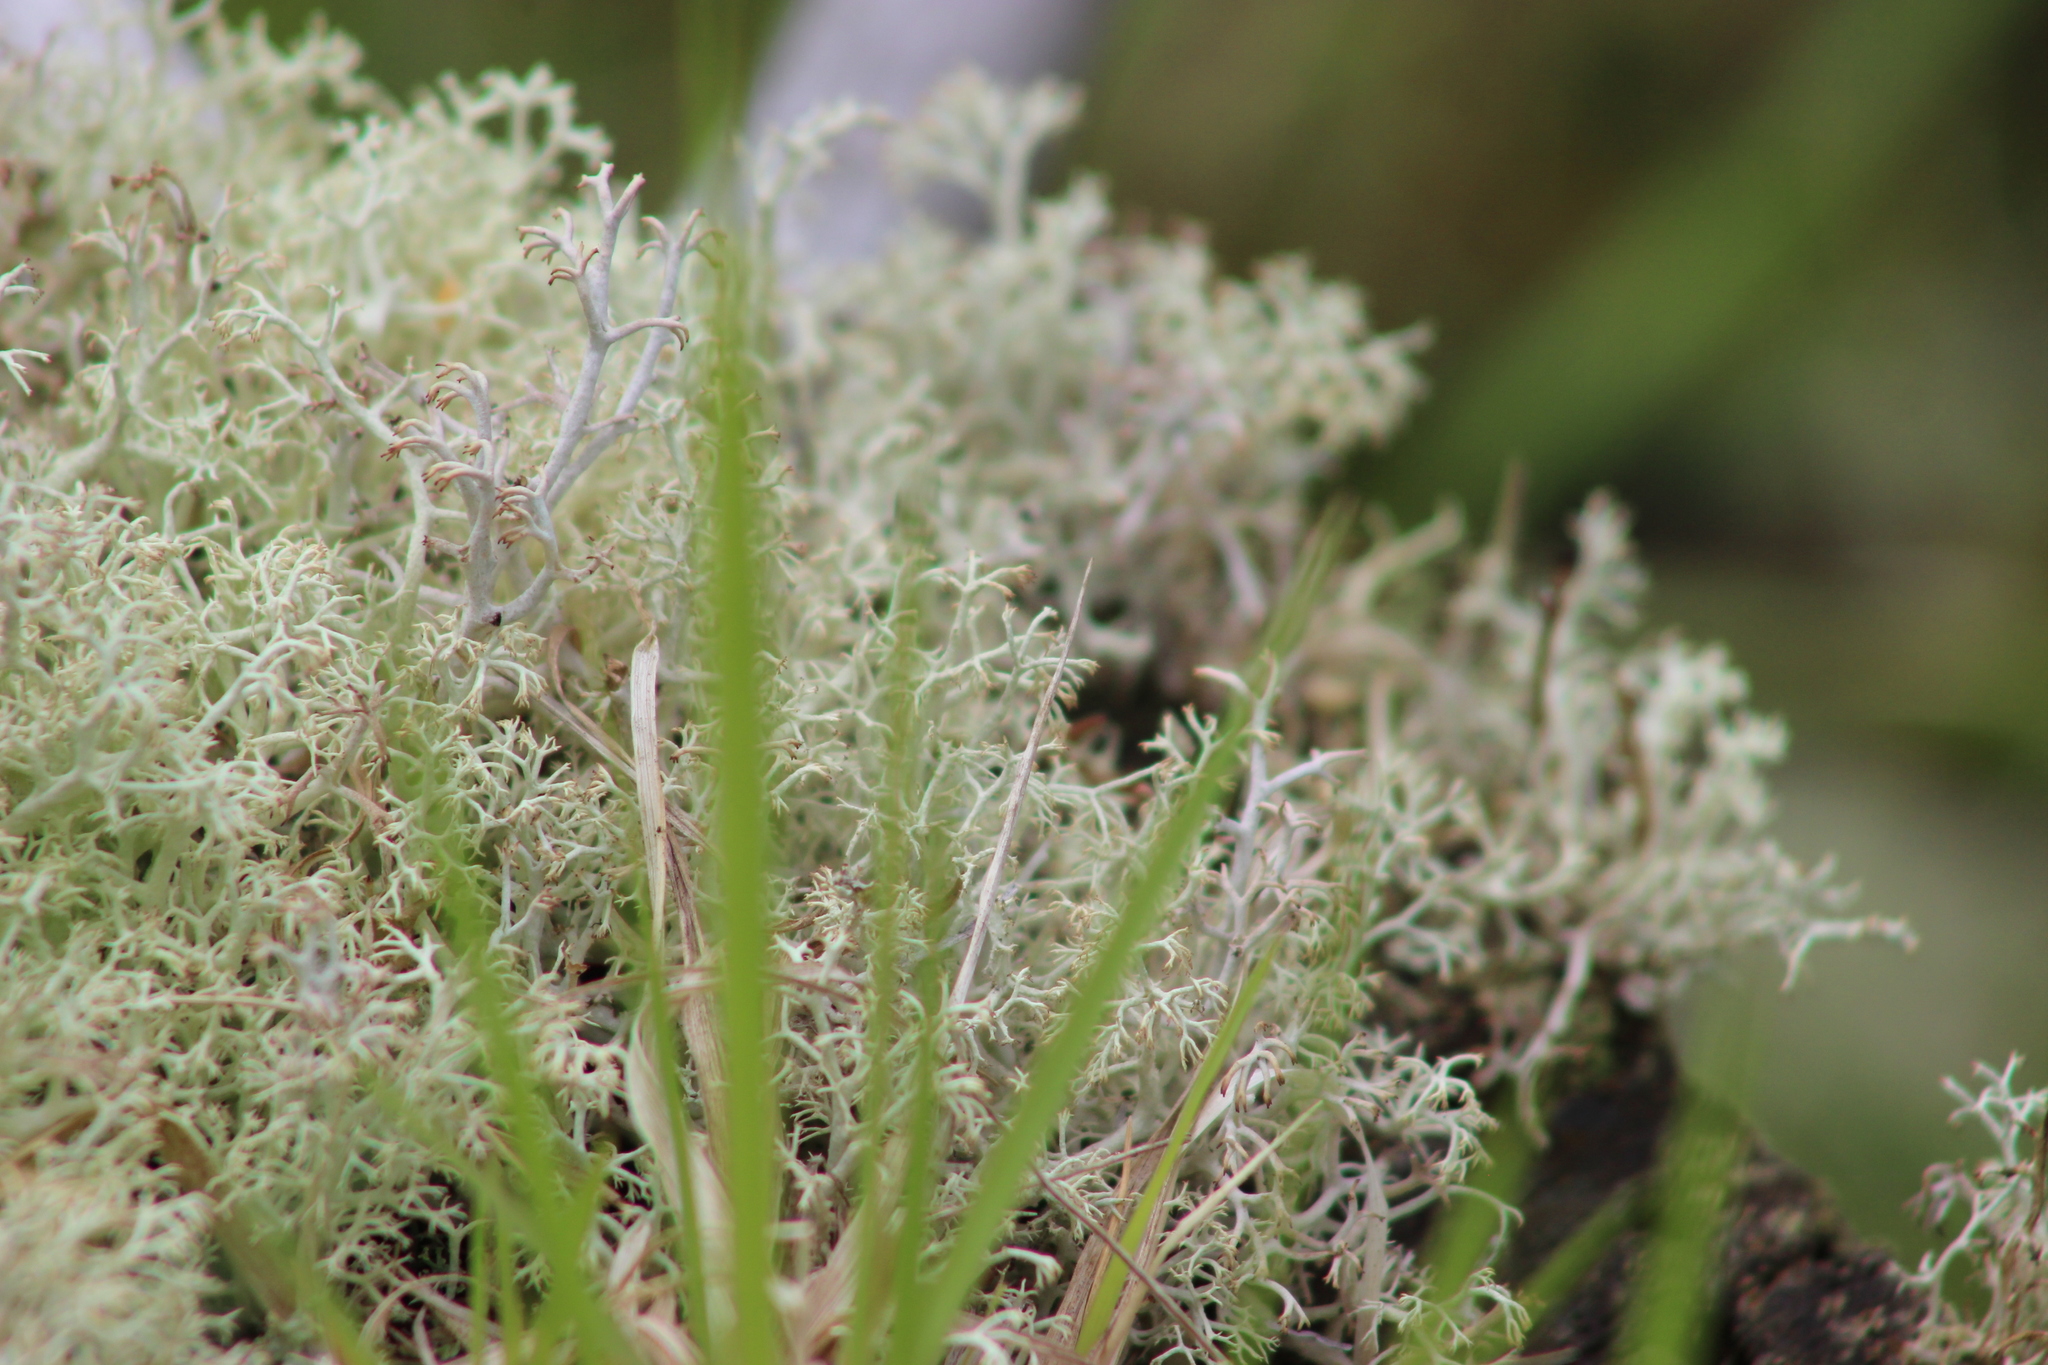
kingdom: Fungi
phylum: Ascomycota
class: Lecanoromycetes
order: Lecanorales
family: Cladoniaceae
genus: Cladonia
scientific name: Cladonia arbuscula
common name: Reindeer lichen
